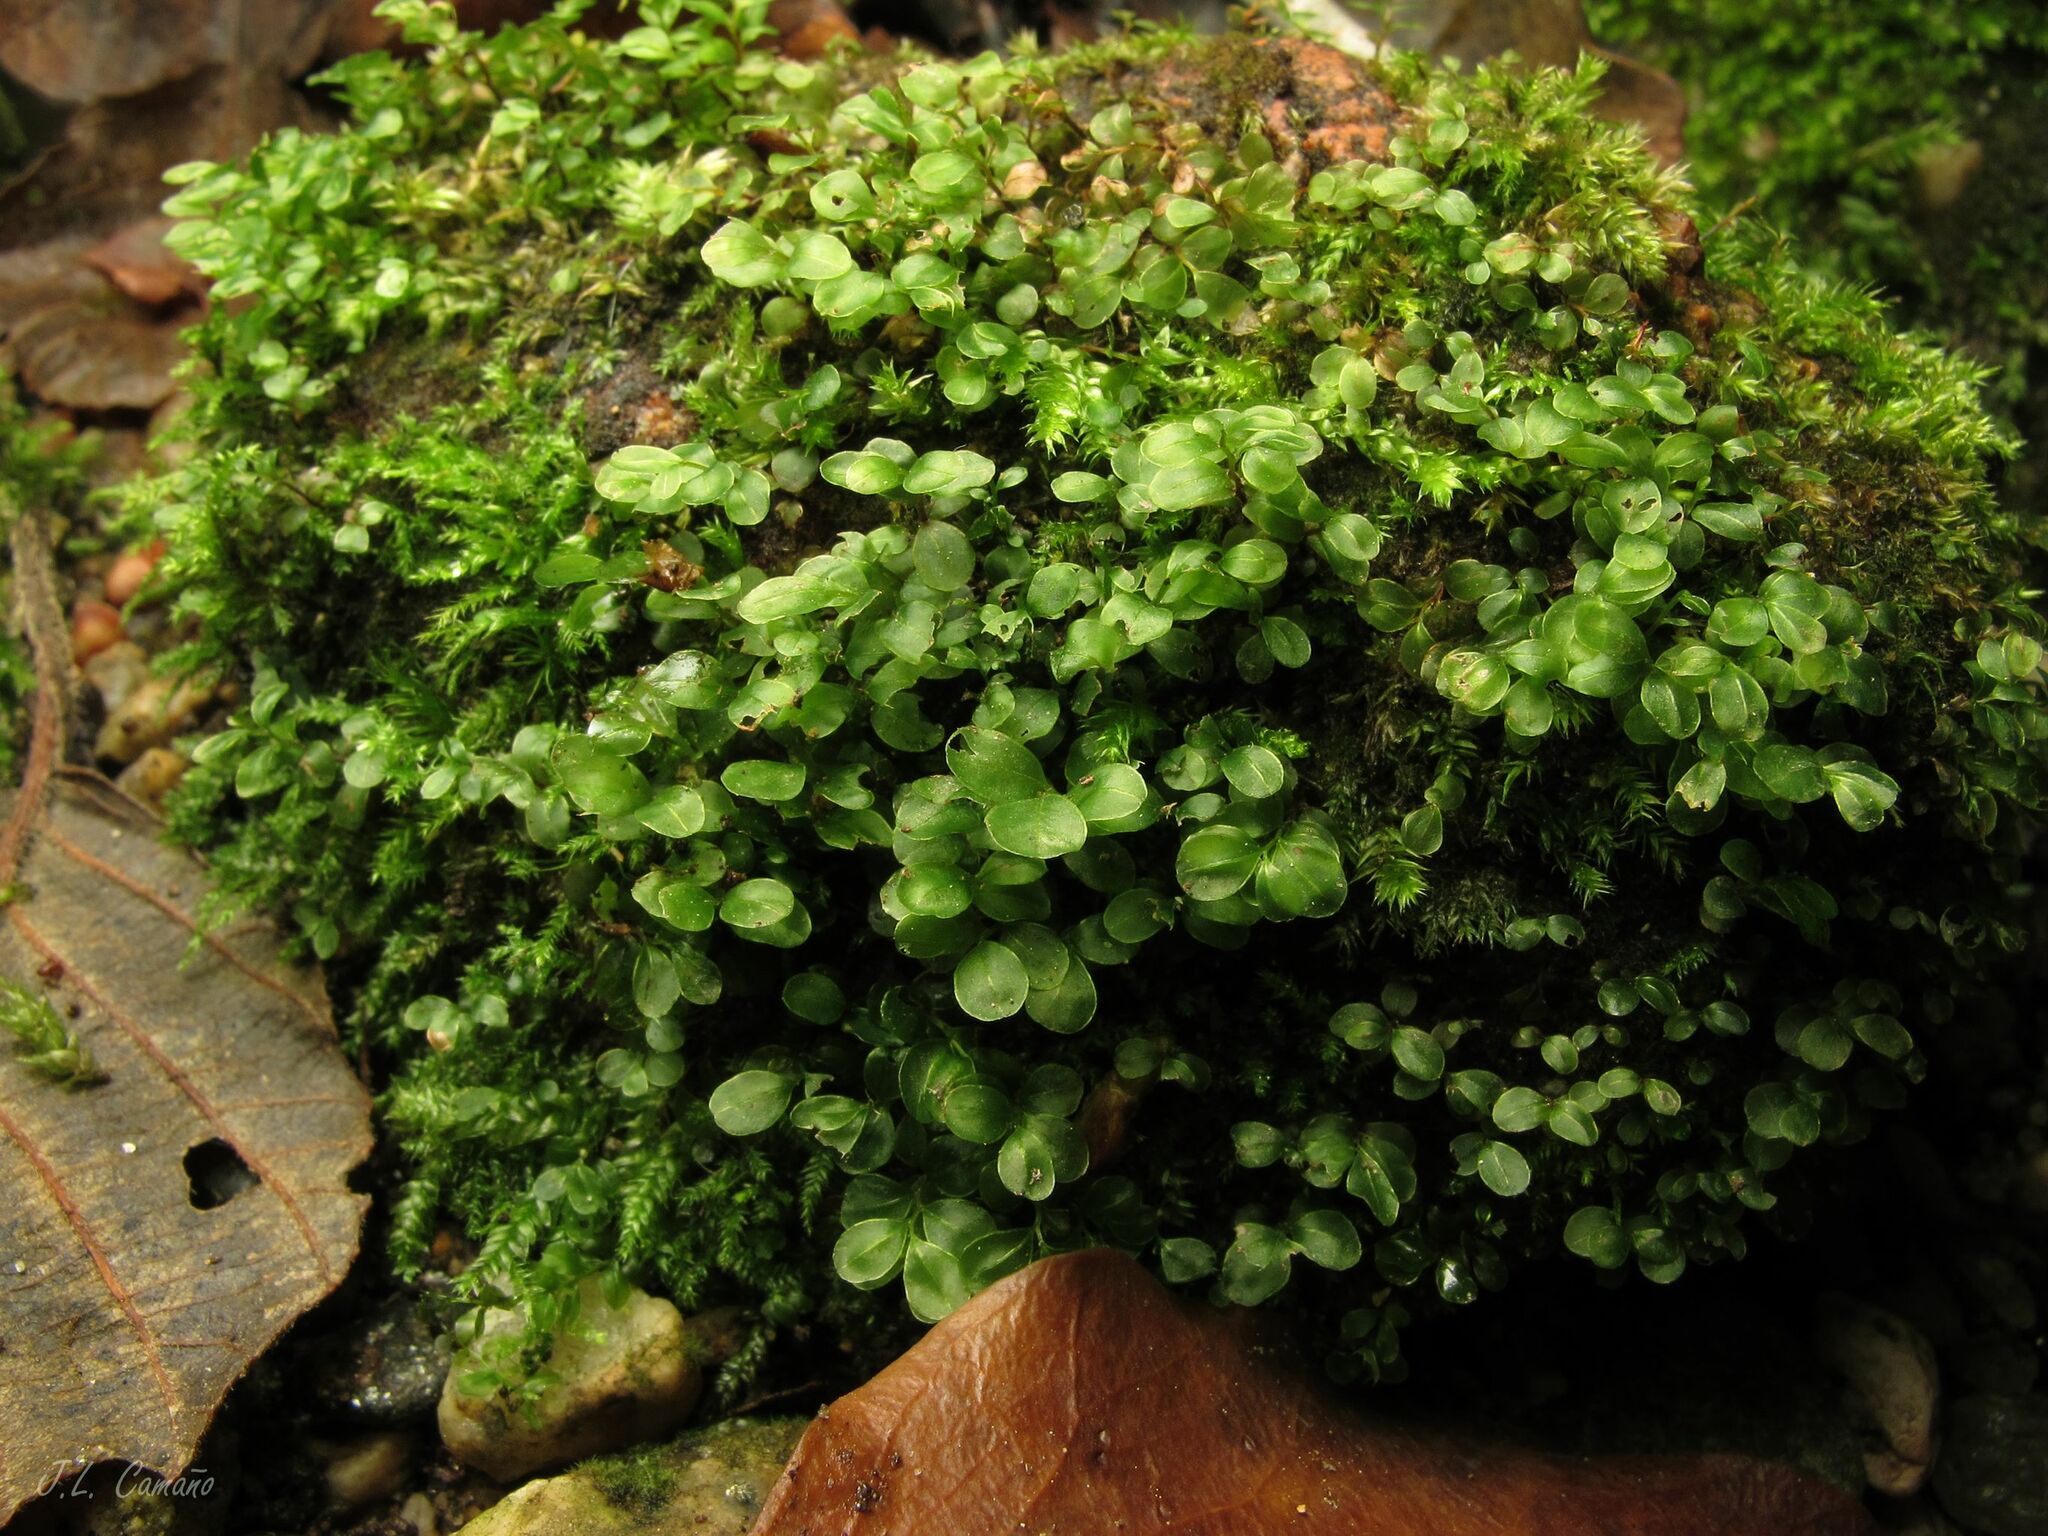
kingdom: Plantae
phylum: Bryophyta
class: Bryopsida
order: Bryales
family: Mniaceae
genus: Rhizomnium
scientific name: Rhizomnium punctatum
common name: Dotted leafy moss
